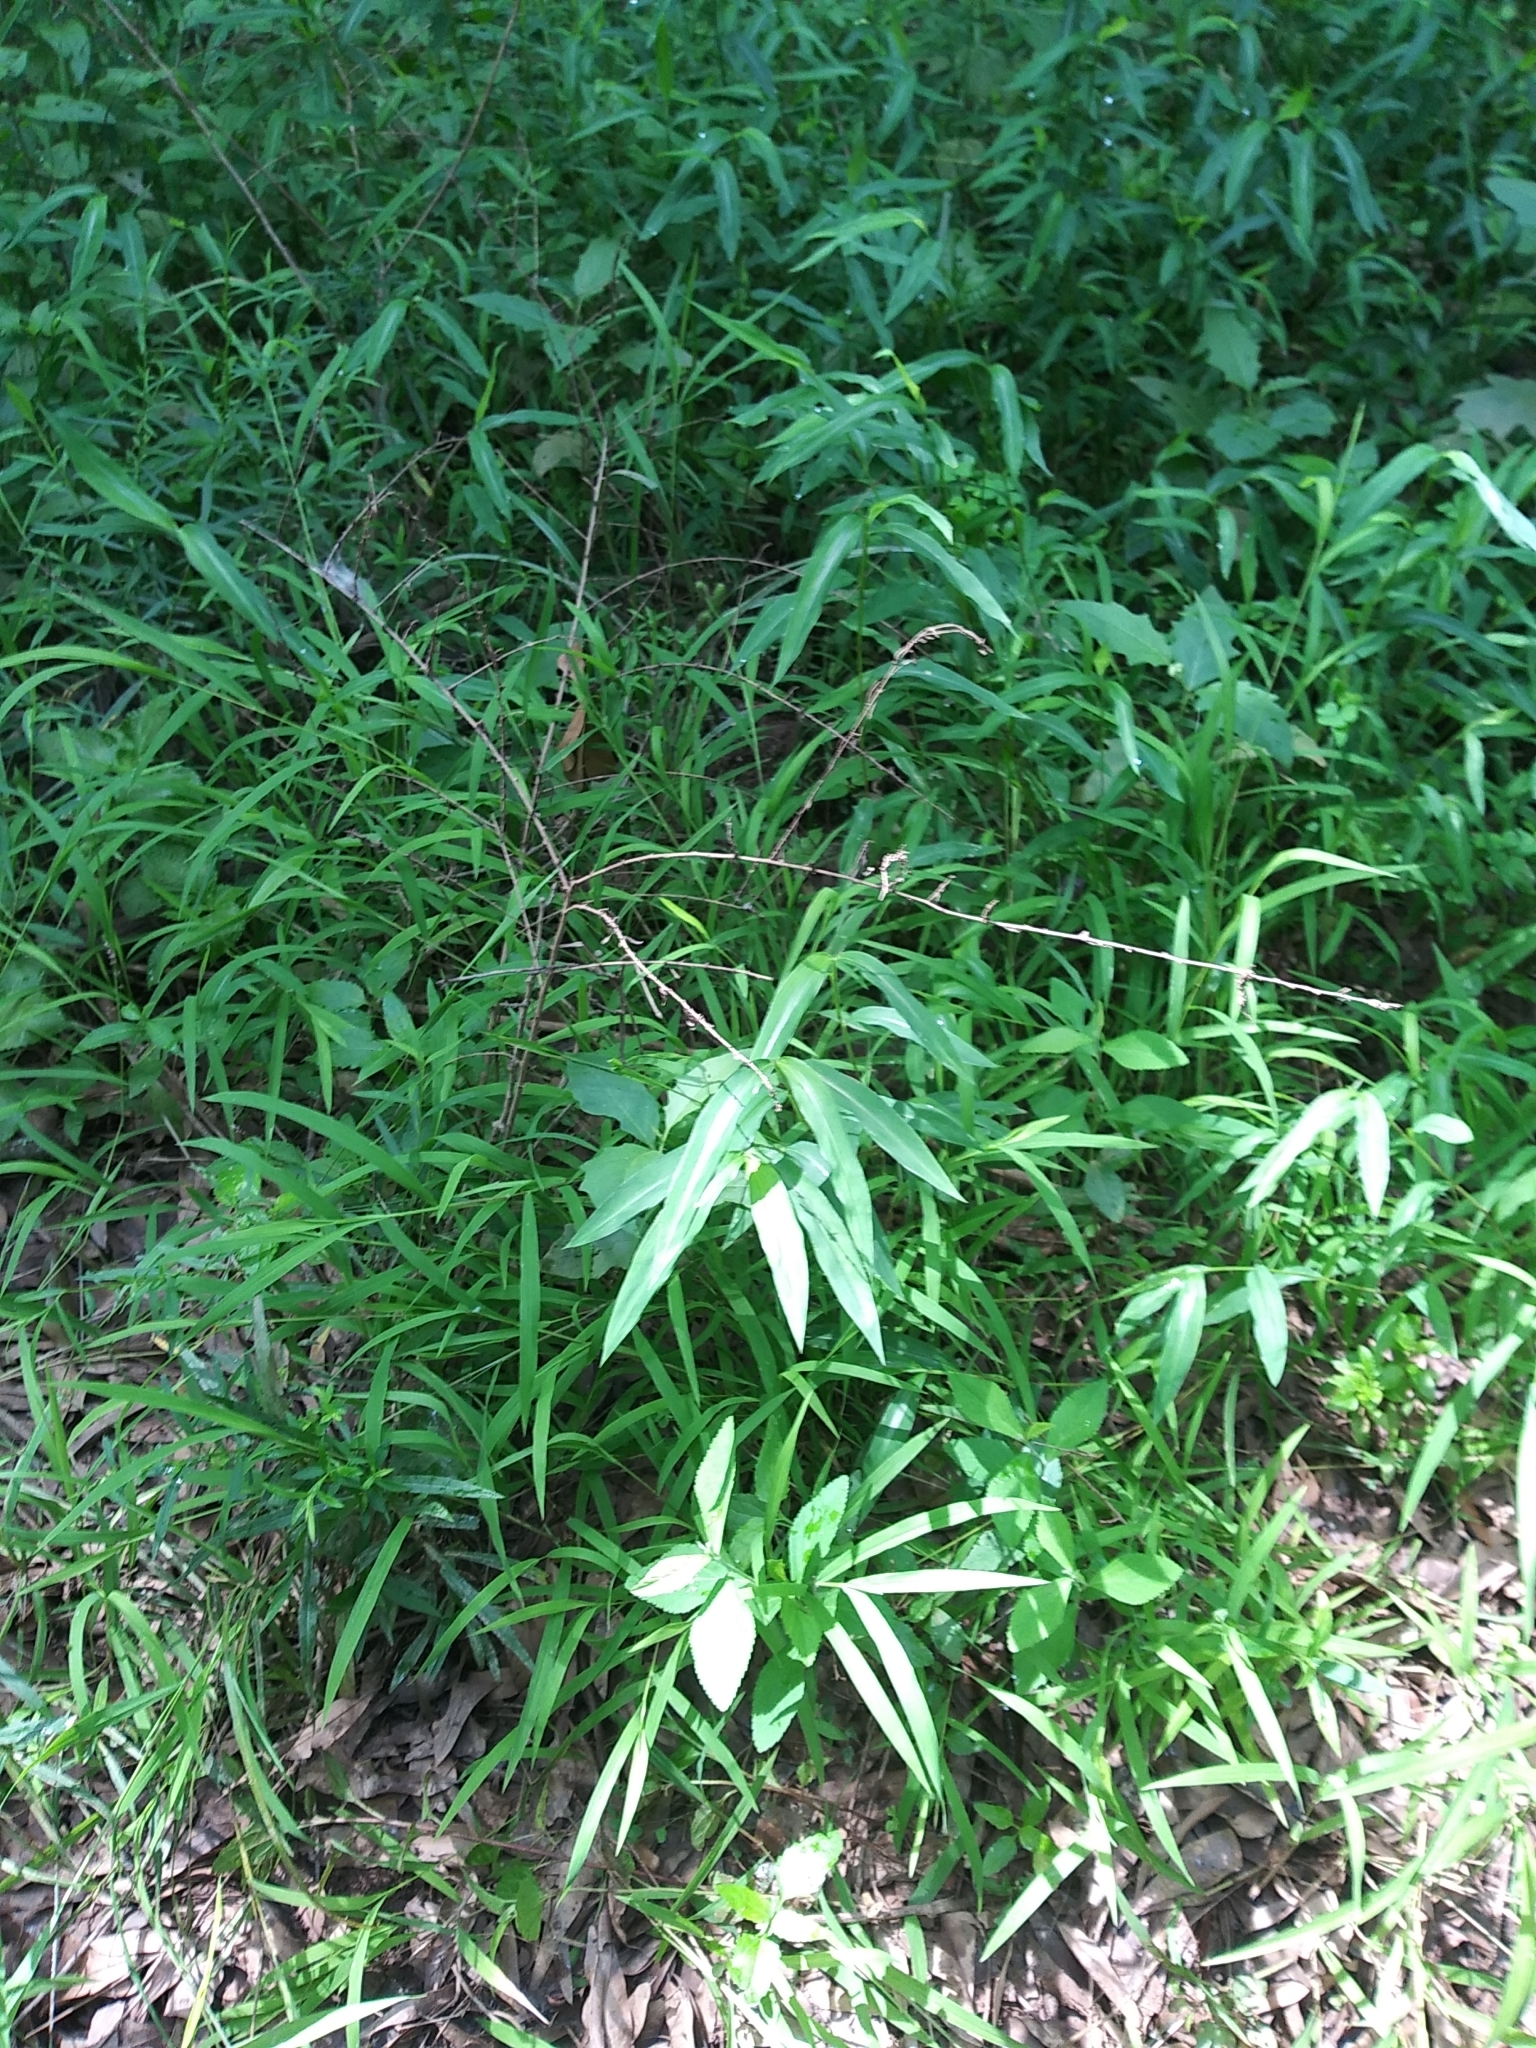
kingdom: Plantae
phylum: Tracheophyta
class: Liliopsida
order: Poales
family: Poaceae
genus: Microstegium
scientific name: Microstegium vimineum
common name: Japanese stiltgrass
